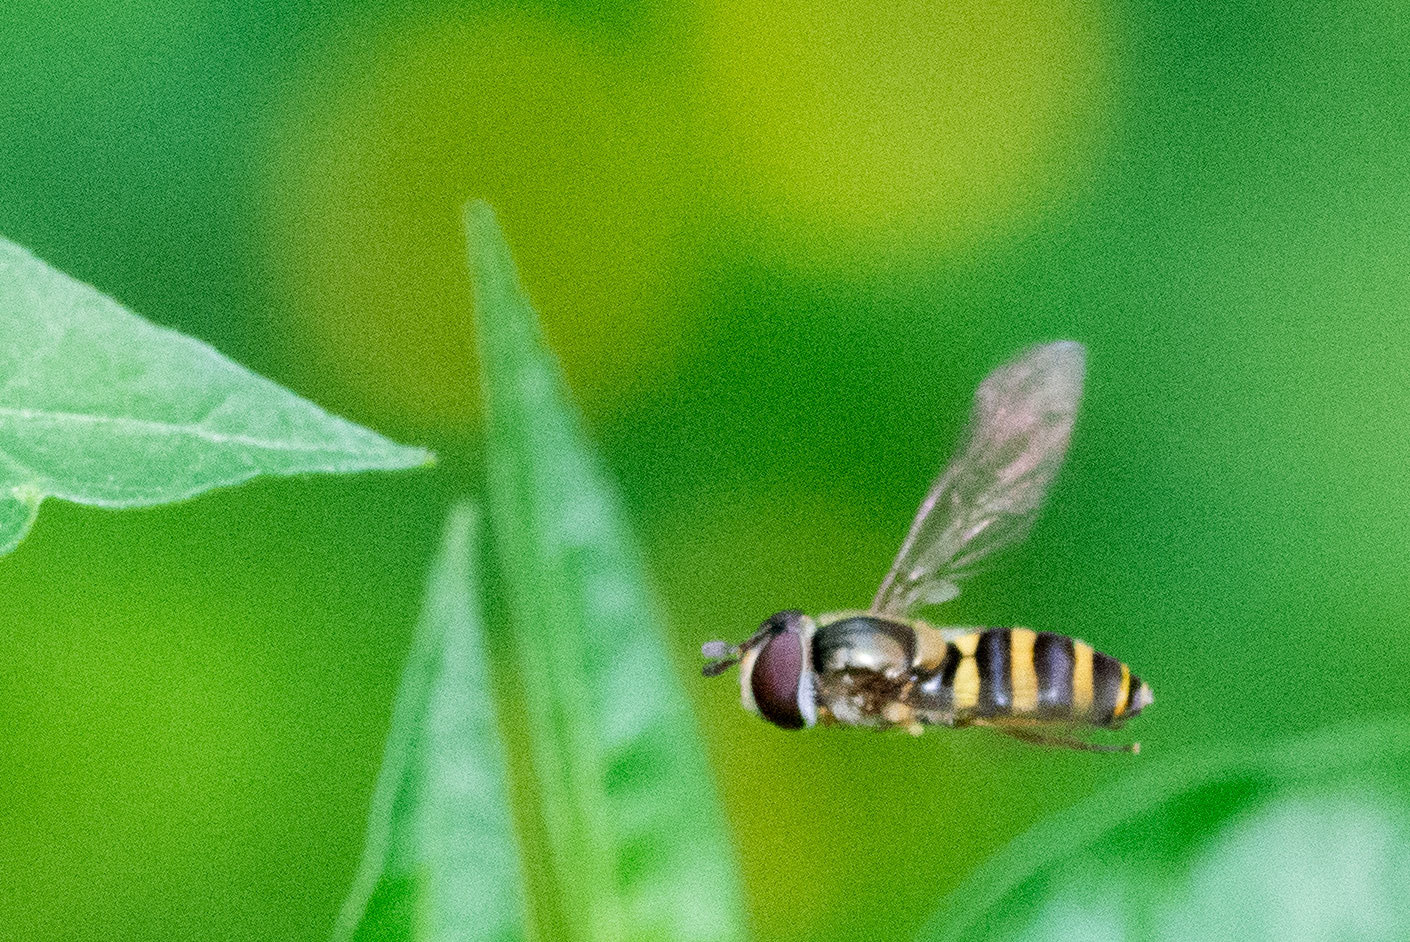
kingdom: Animalia
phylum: Arthropoda
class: Insecta
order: Diptera
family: Syrphidae
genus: Eupeodes
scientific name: Eupeodes
